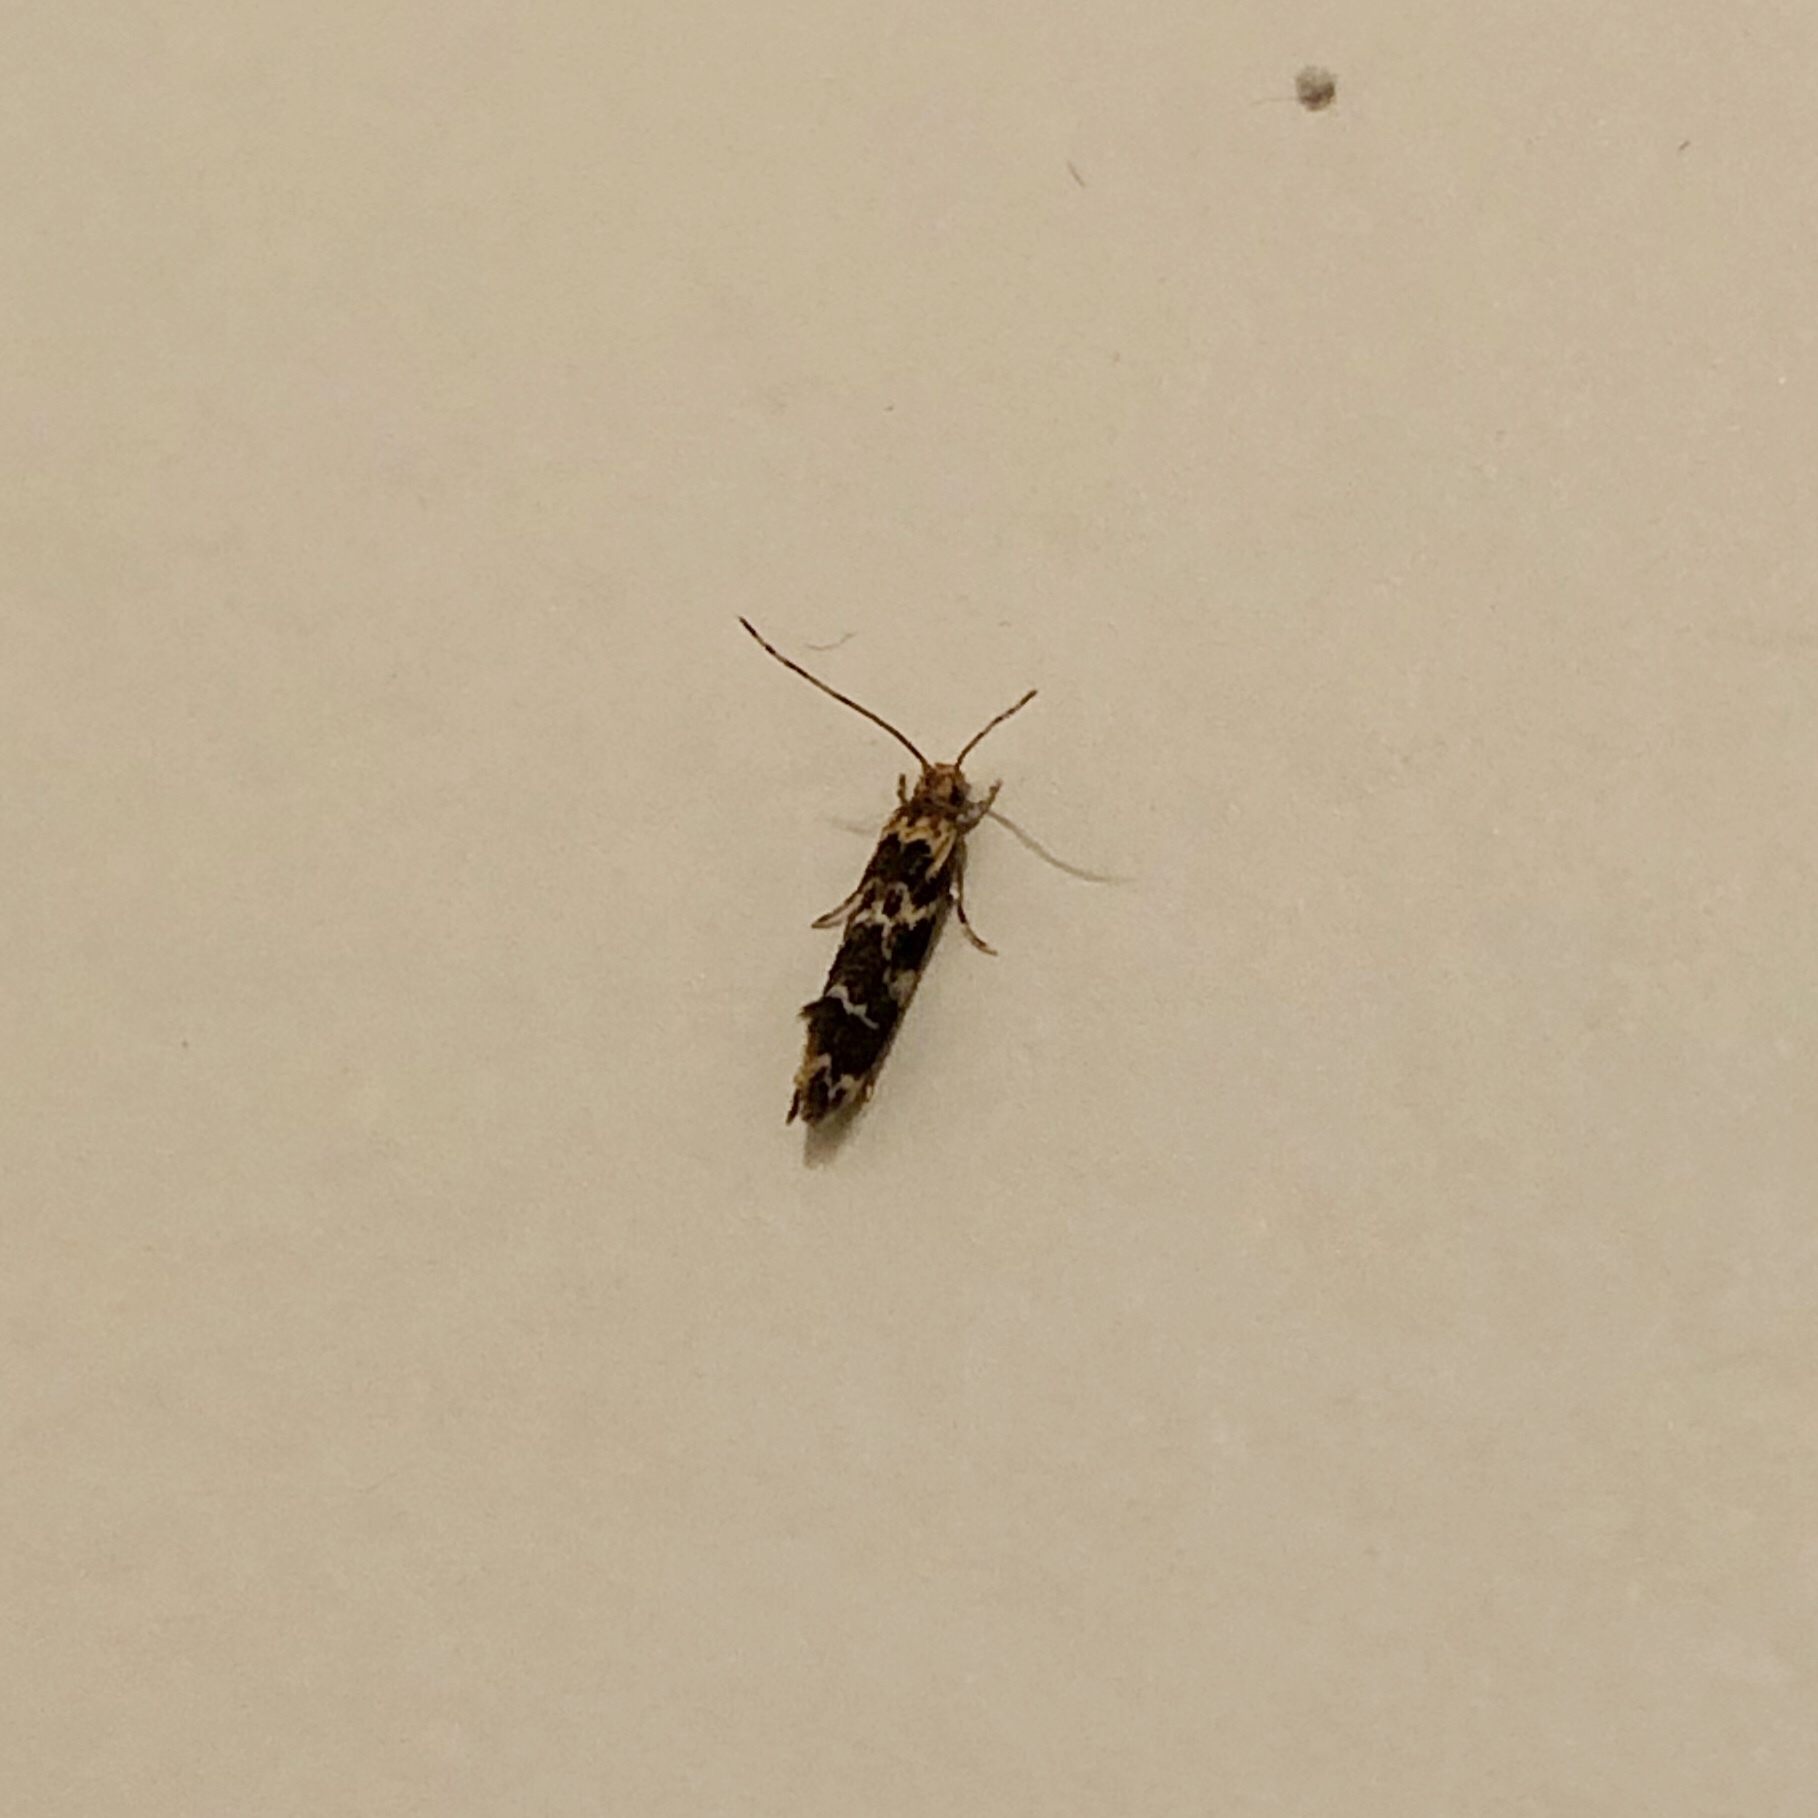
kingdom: Animalia
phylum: Arthropoda
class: Insecta
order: Lepidoptera
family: Dryadaulidae
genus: Dryadaula
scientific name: Dryadaula pactolia
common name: Cellar clothes
